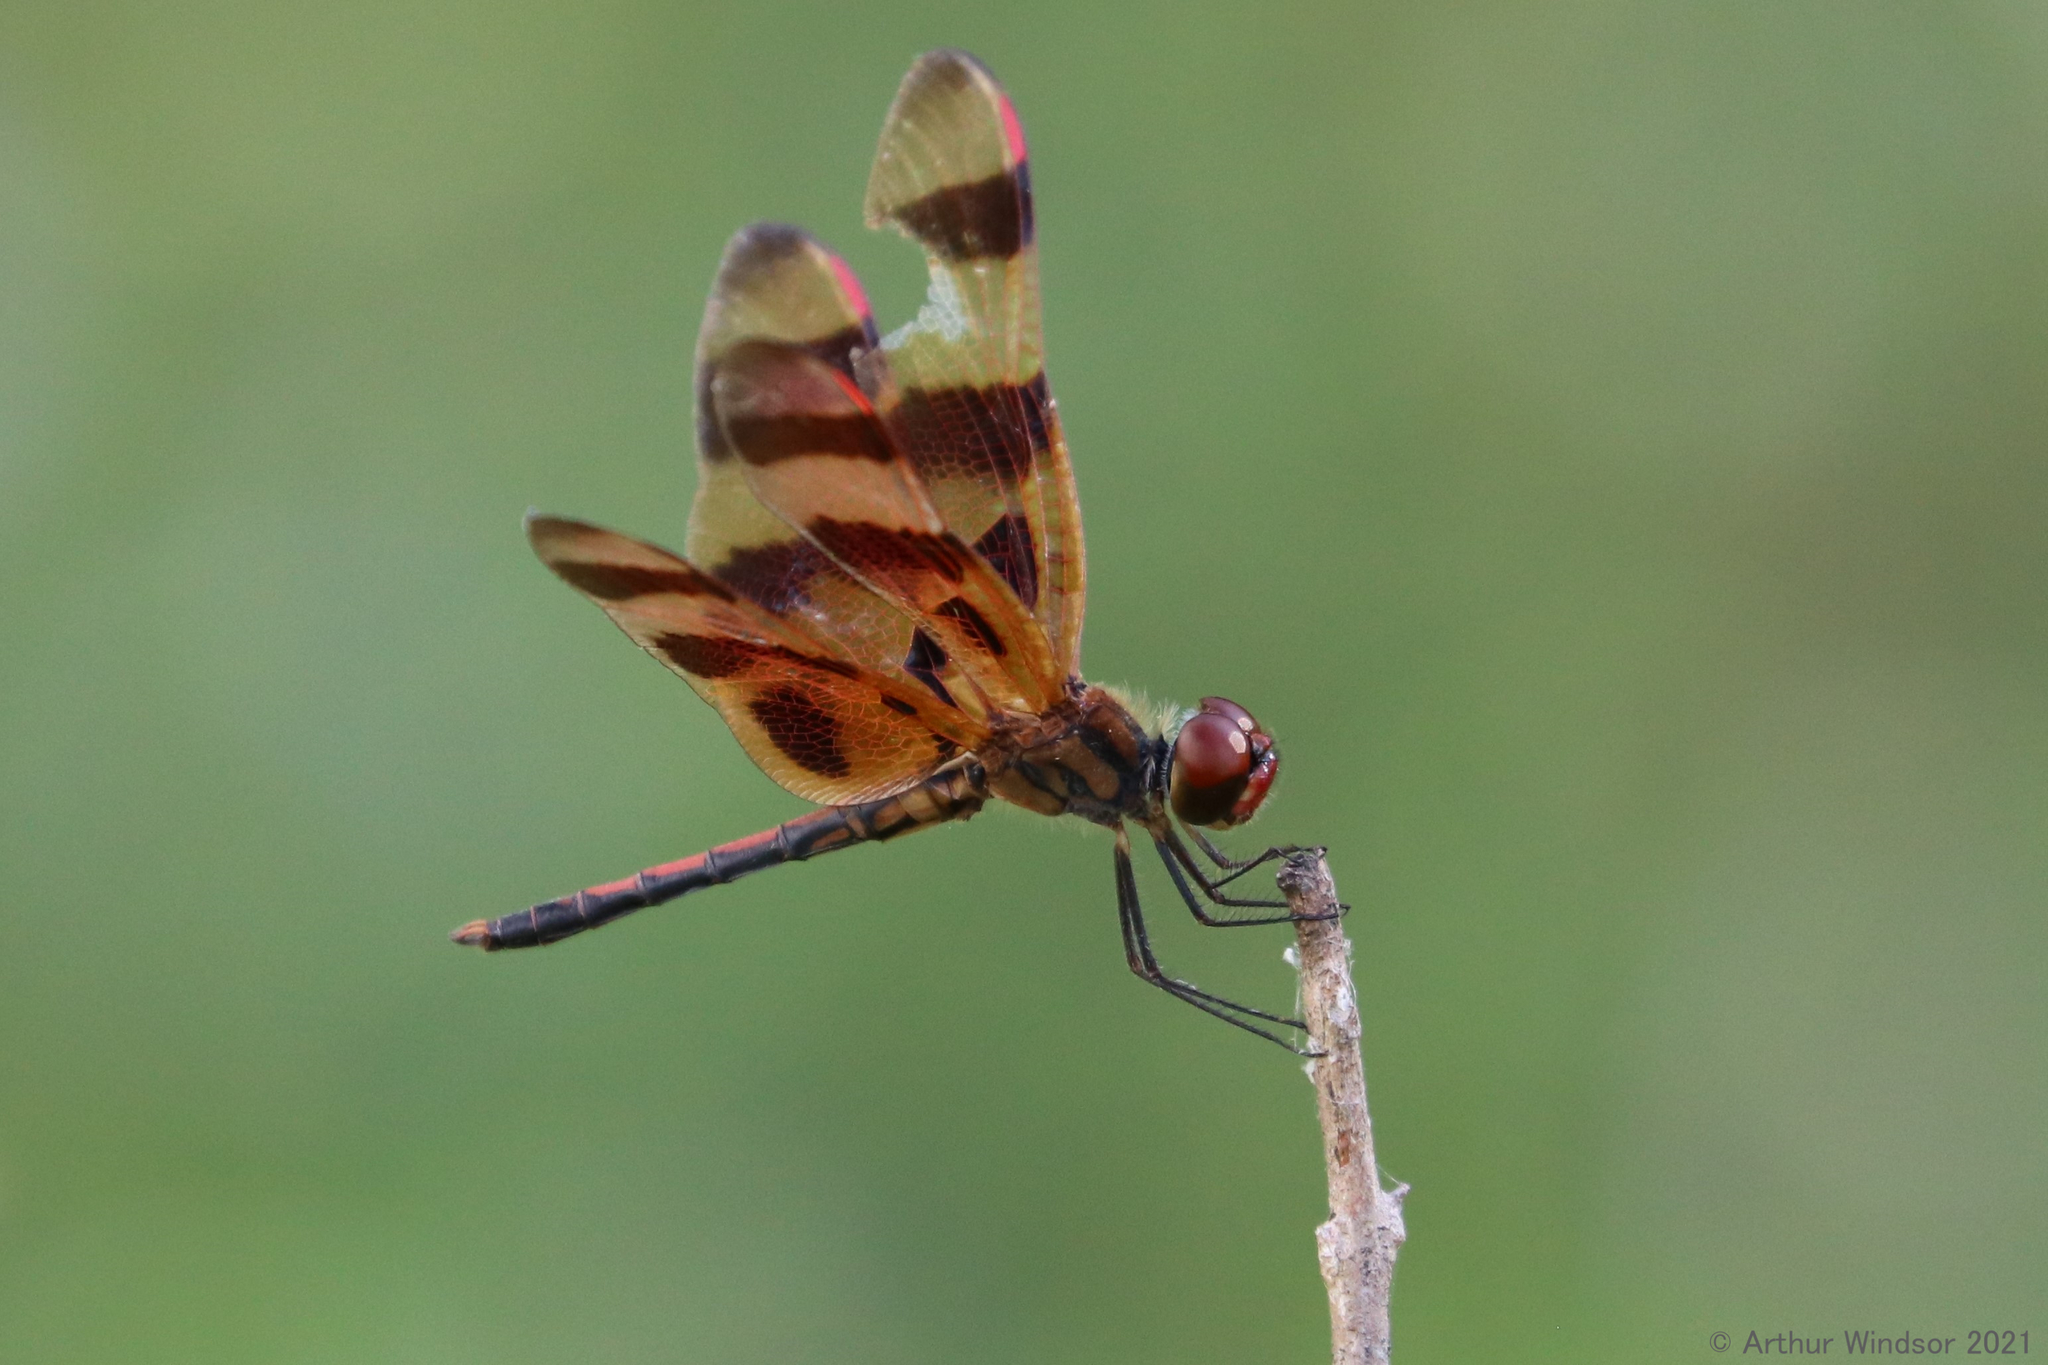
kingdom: Animalia
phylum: Arthropoda
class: Insecta
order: Odonata
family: Libellulidae
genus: Celithemis
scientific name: Celithemis eponina
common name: Halloween pennant
